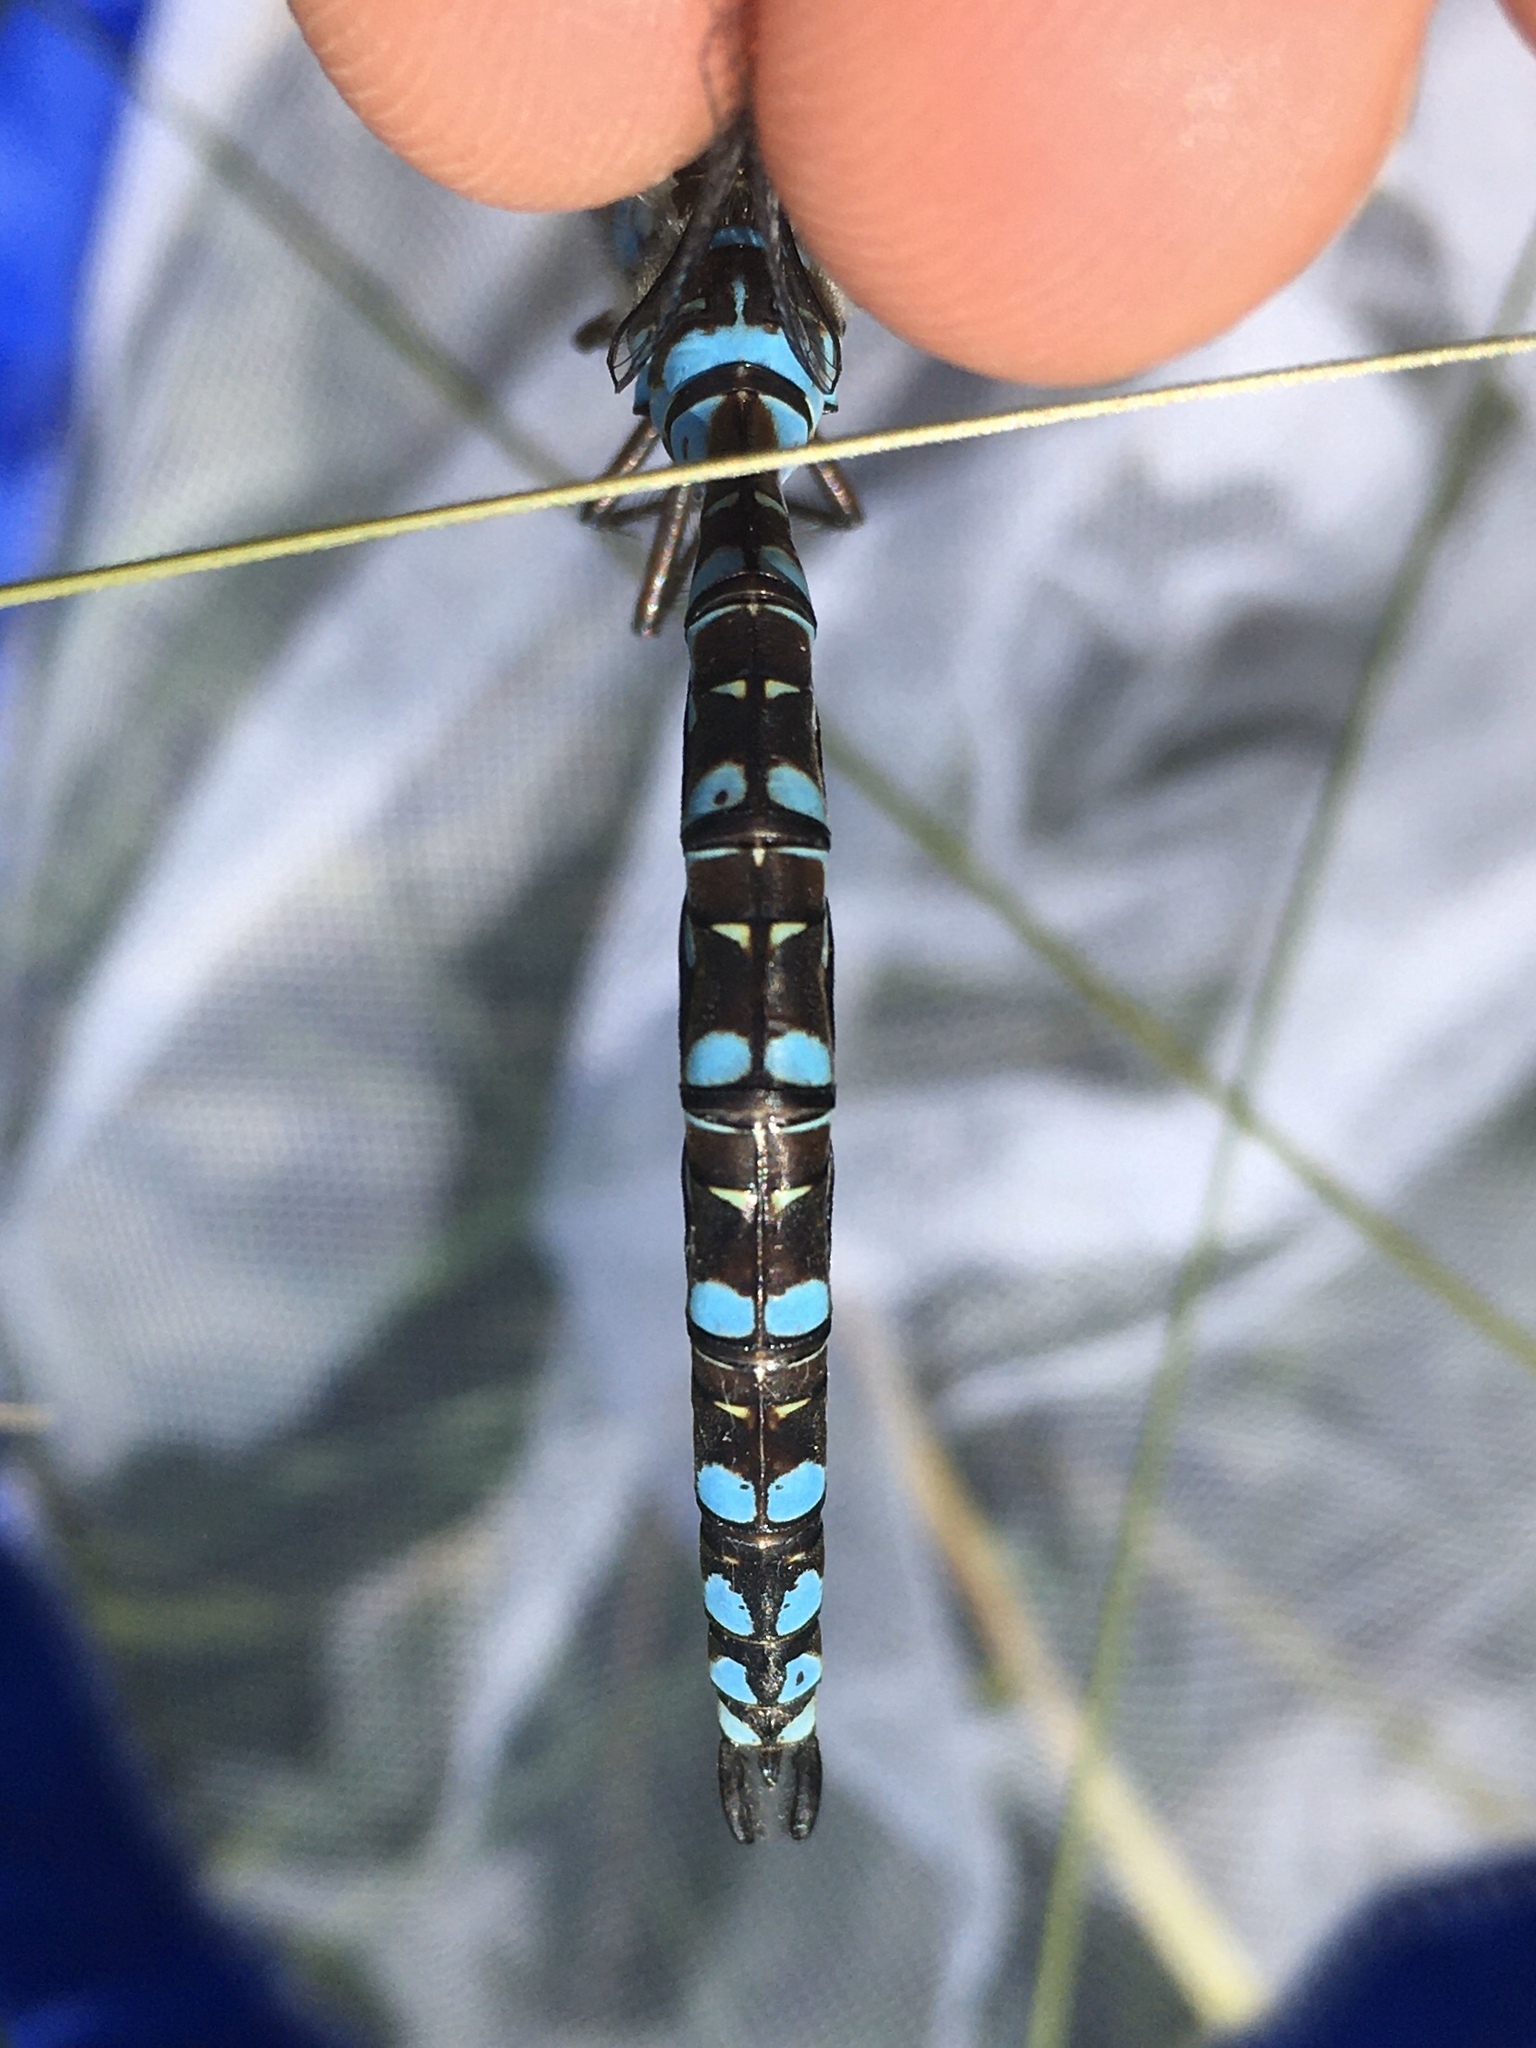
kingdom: Animalia
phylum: Arthropoda
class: Insecta
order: Odonata
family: Aeshnidae
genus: Aeshna
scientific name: Aeshna canadensis
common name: Canada darner
